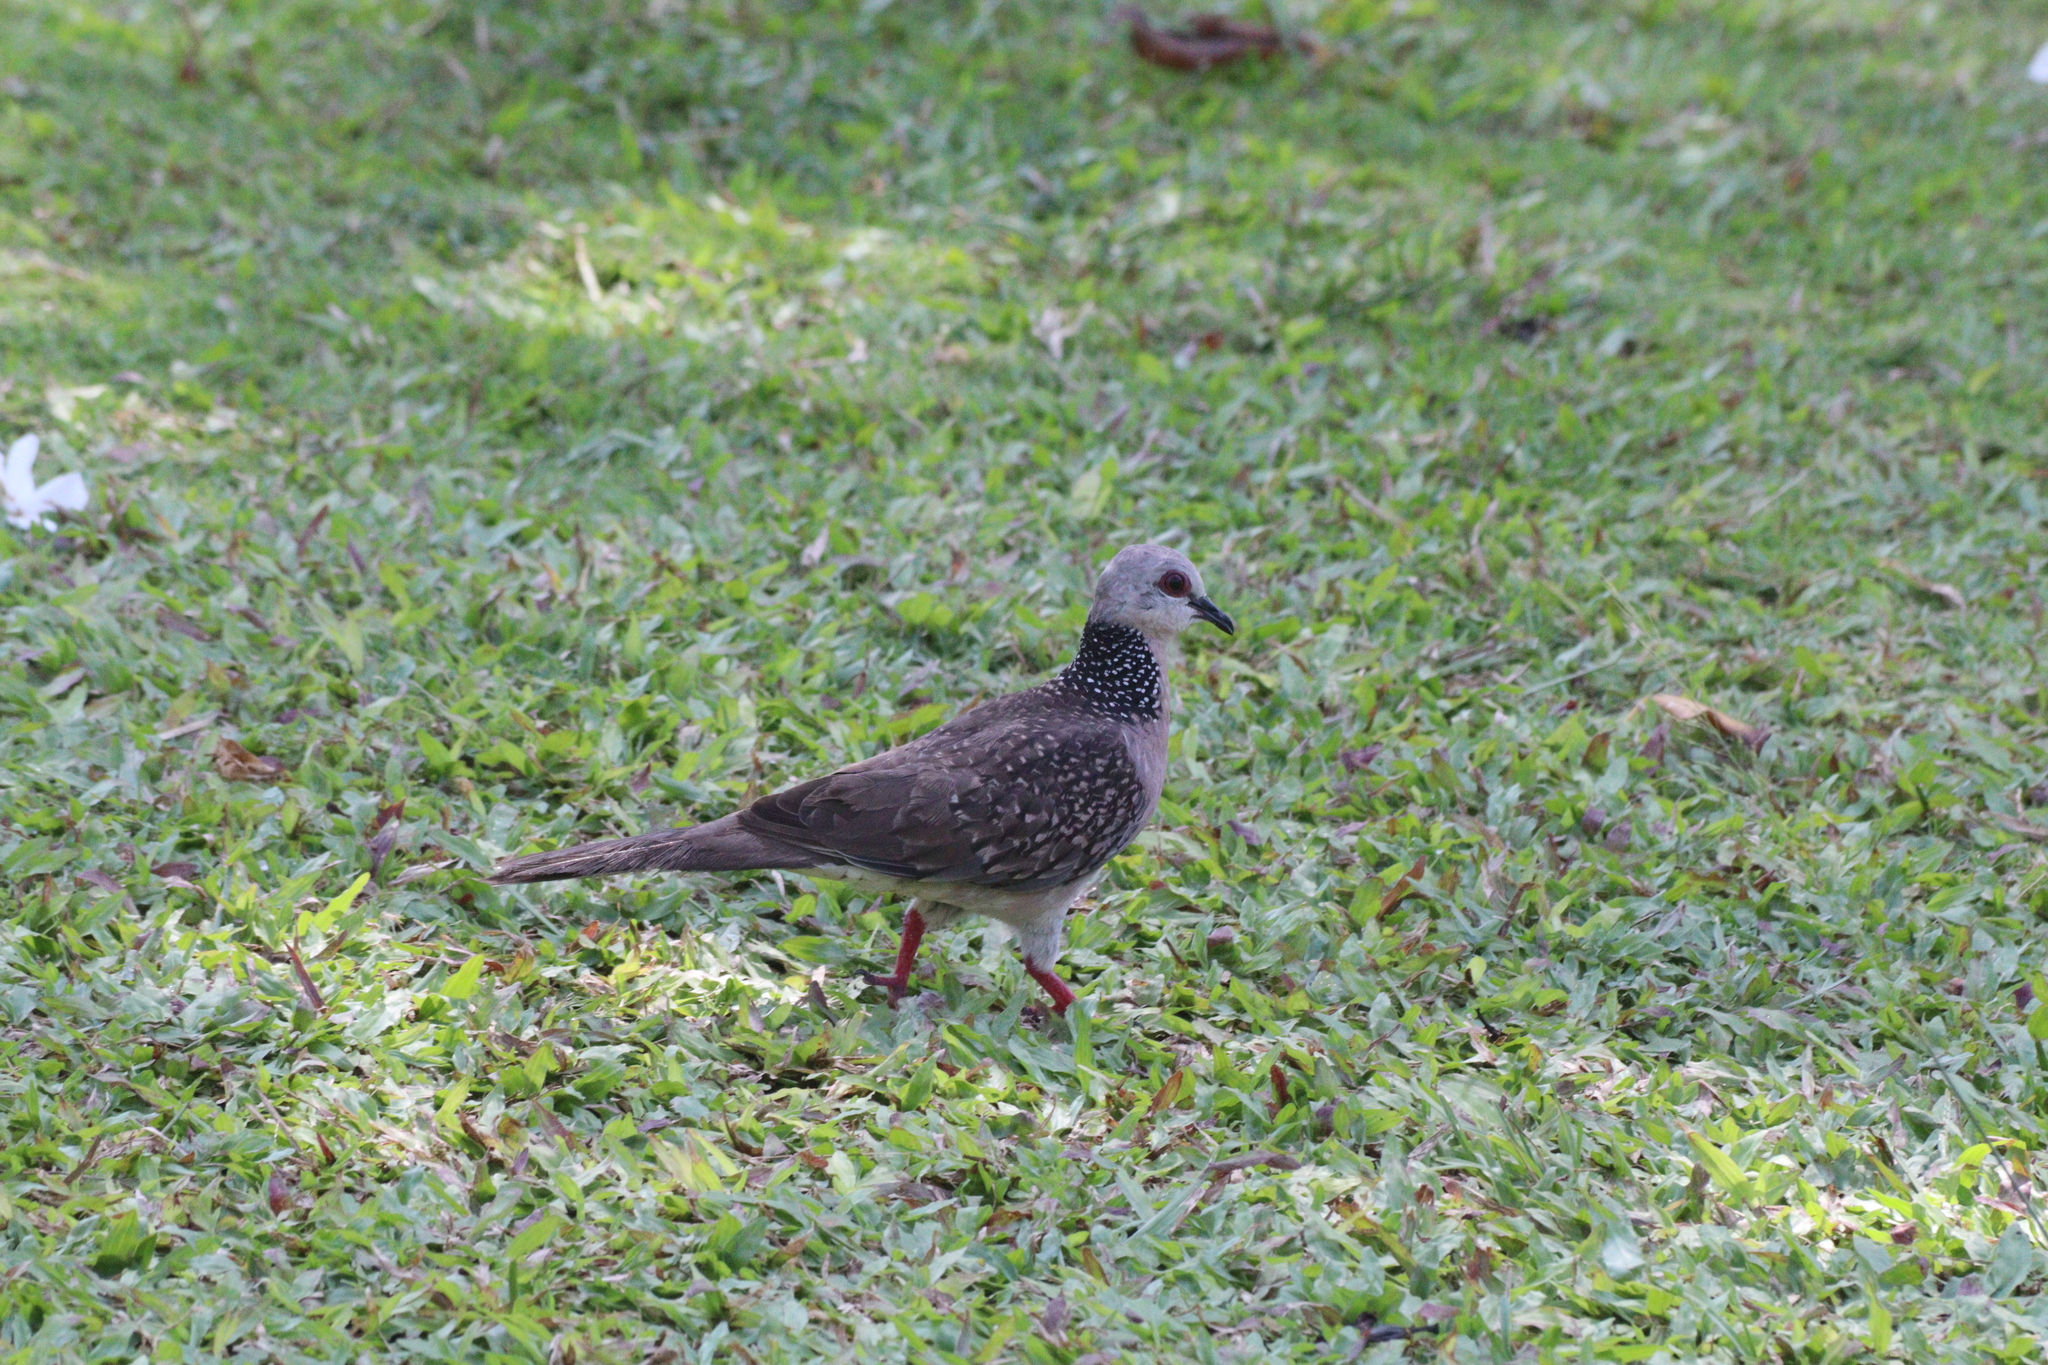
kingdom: Animalia
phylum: Chordata
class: Aves
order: Columbiformes
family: Columbidae
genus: Spilopelia
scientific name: Spilopelia chinensis
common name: Spotted dove
